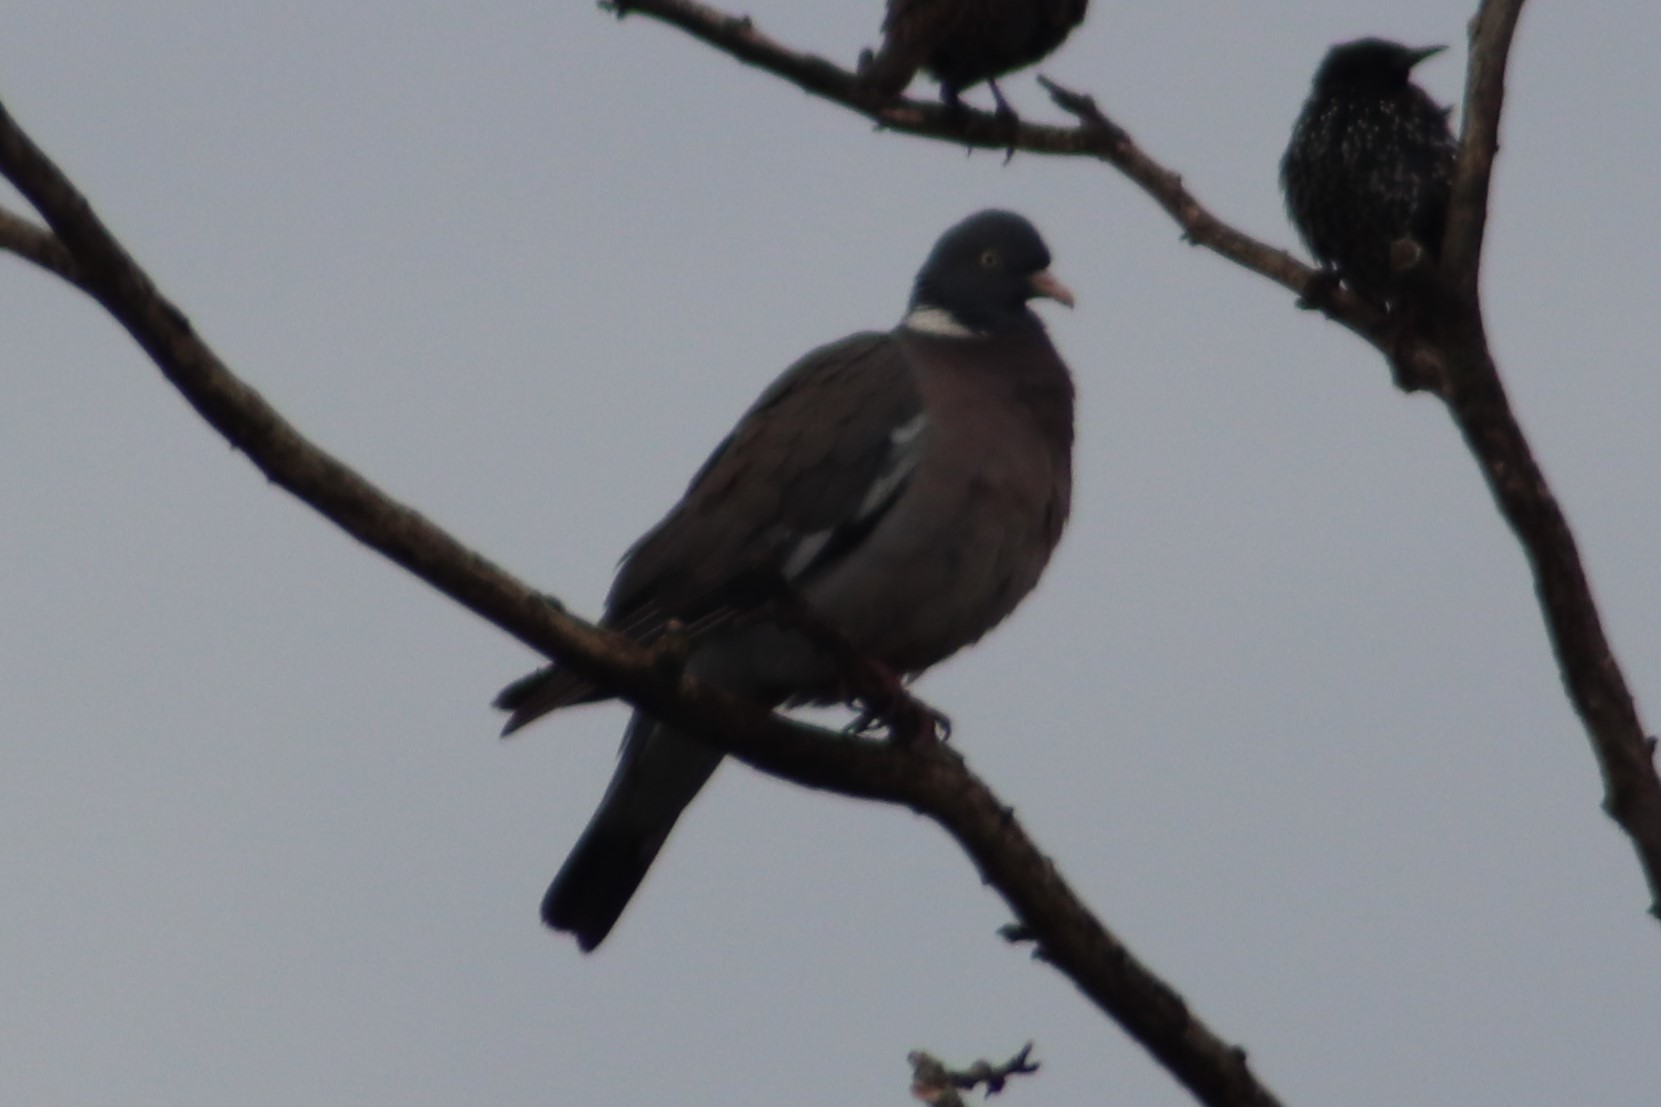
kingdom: Animalia
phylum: Chordata
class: Aves
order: Columbiformes
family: Columbidae
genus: Columba
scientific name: Columba palumbus
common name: Common wood pigeon
